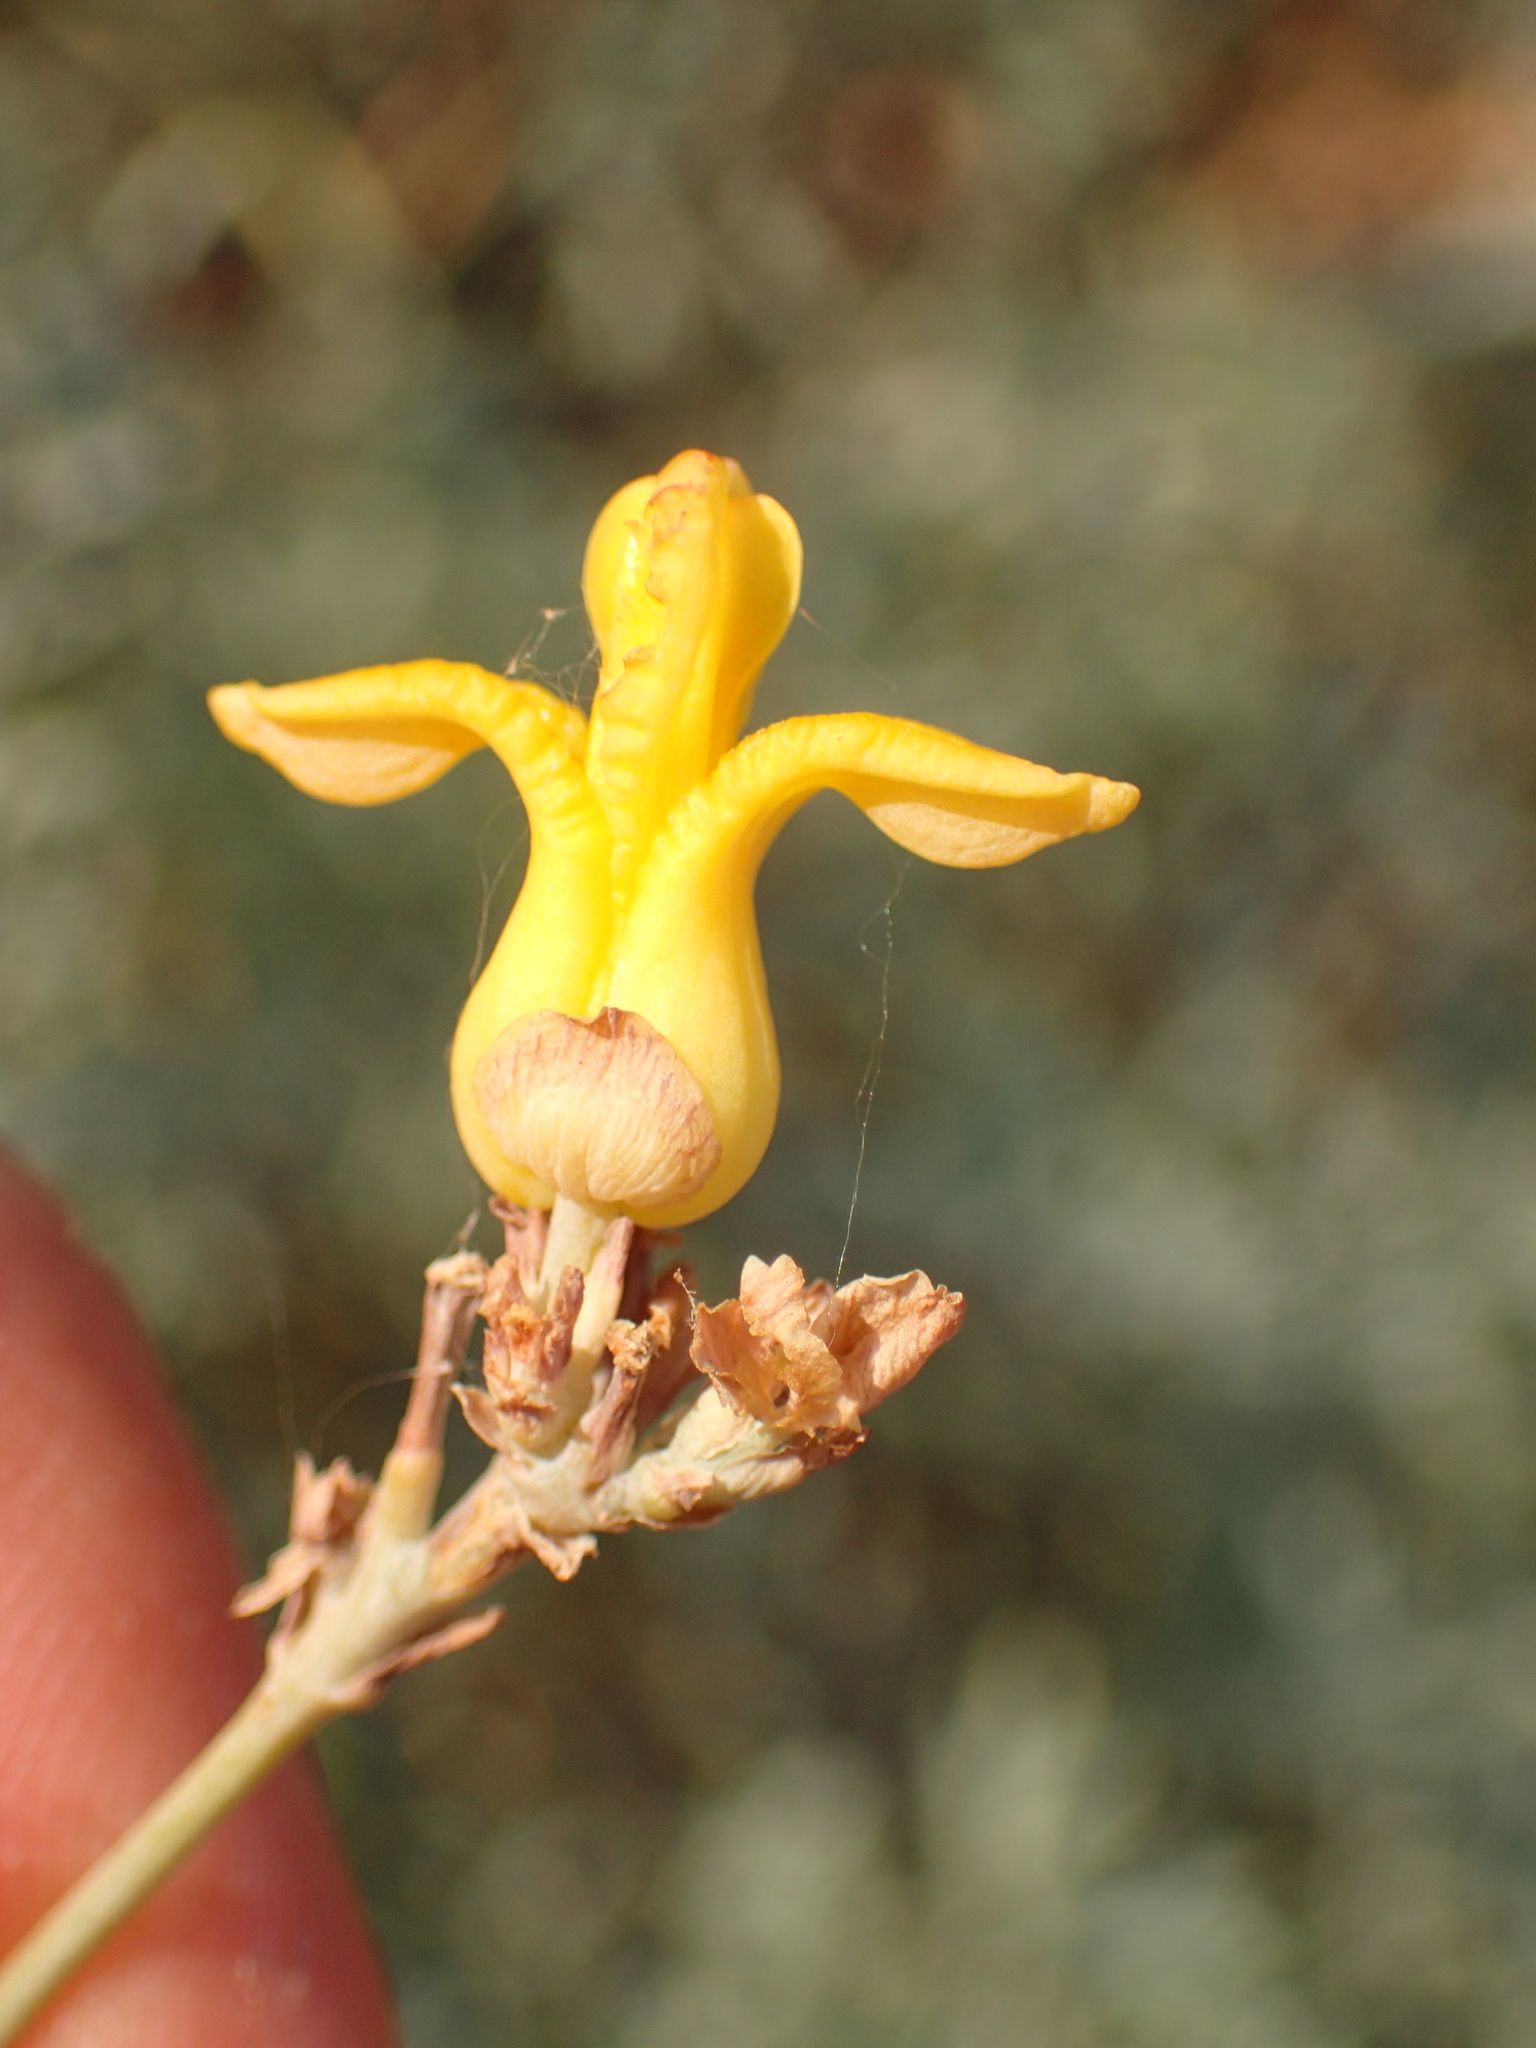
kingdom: Plantae
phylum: Tracheophyta
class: Magnoliopsida
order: Ranunculales
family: Papaveraceae
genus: Ehrendorferia
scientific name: Ehrendorferia chrysantha
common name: Golden eardrops
